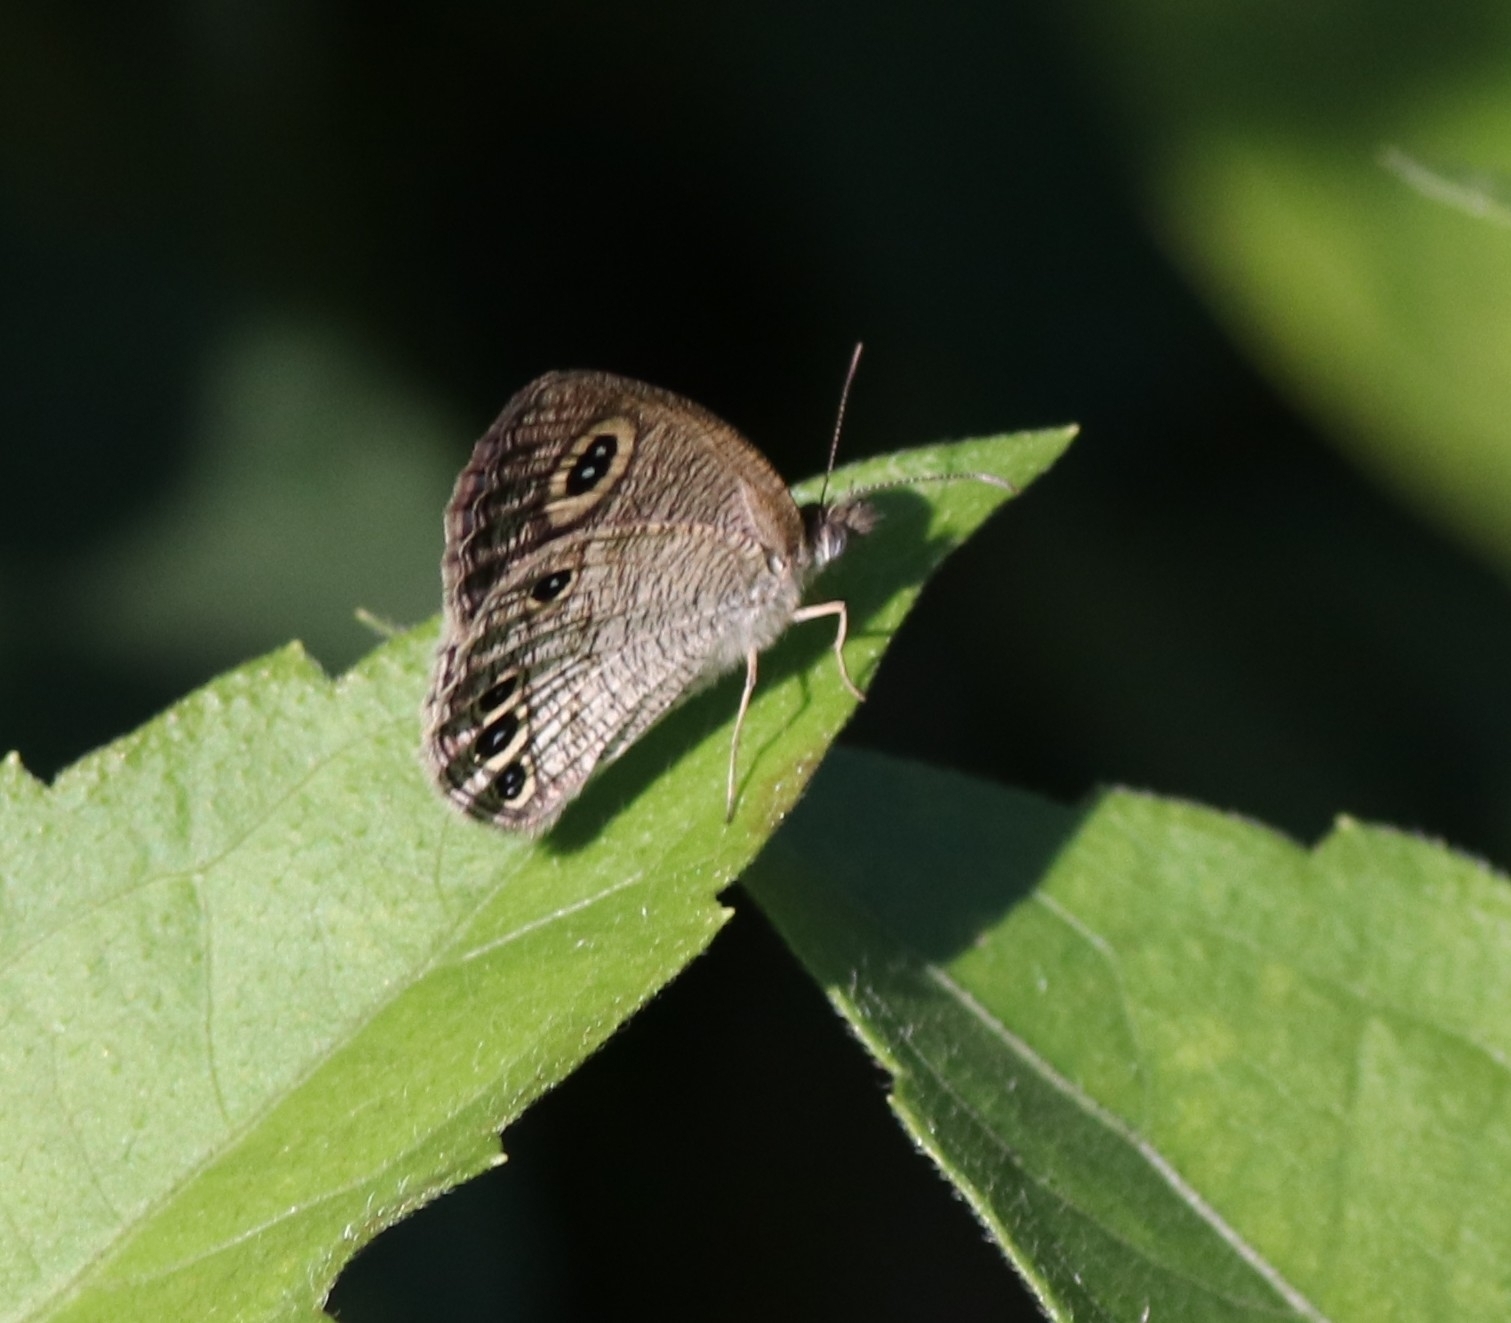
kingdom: Animalia
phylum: Arthropoda
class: Insecta
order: Lepidoptera
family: Nymphalidae
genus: Ypthima
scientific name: Ypthima huebneri
